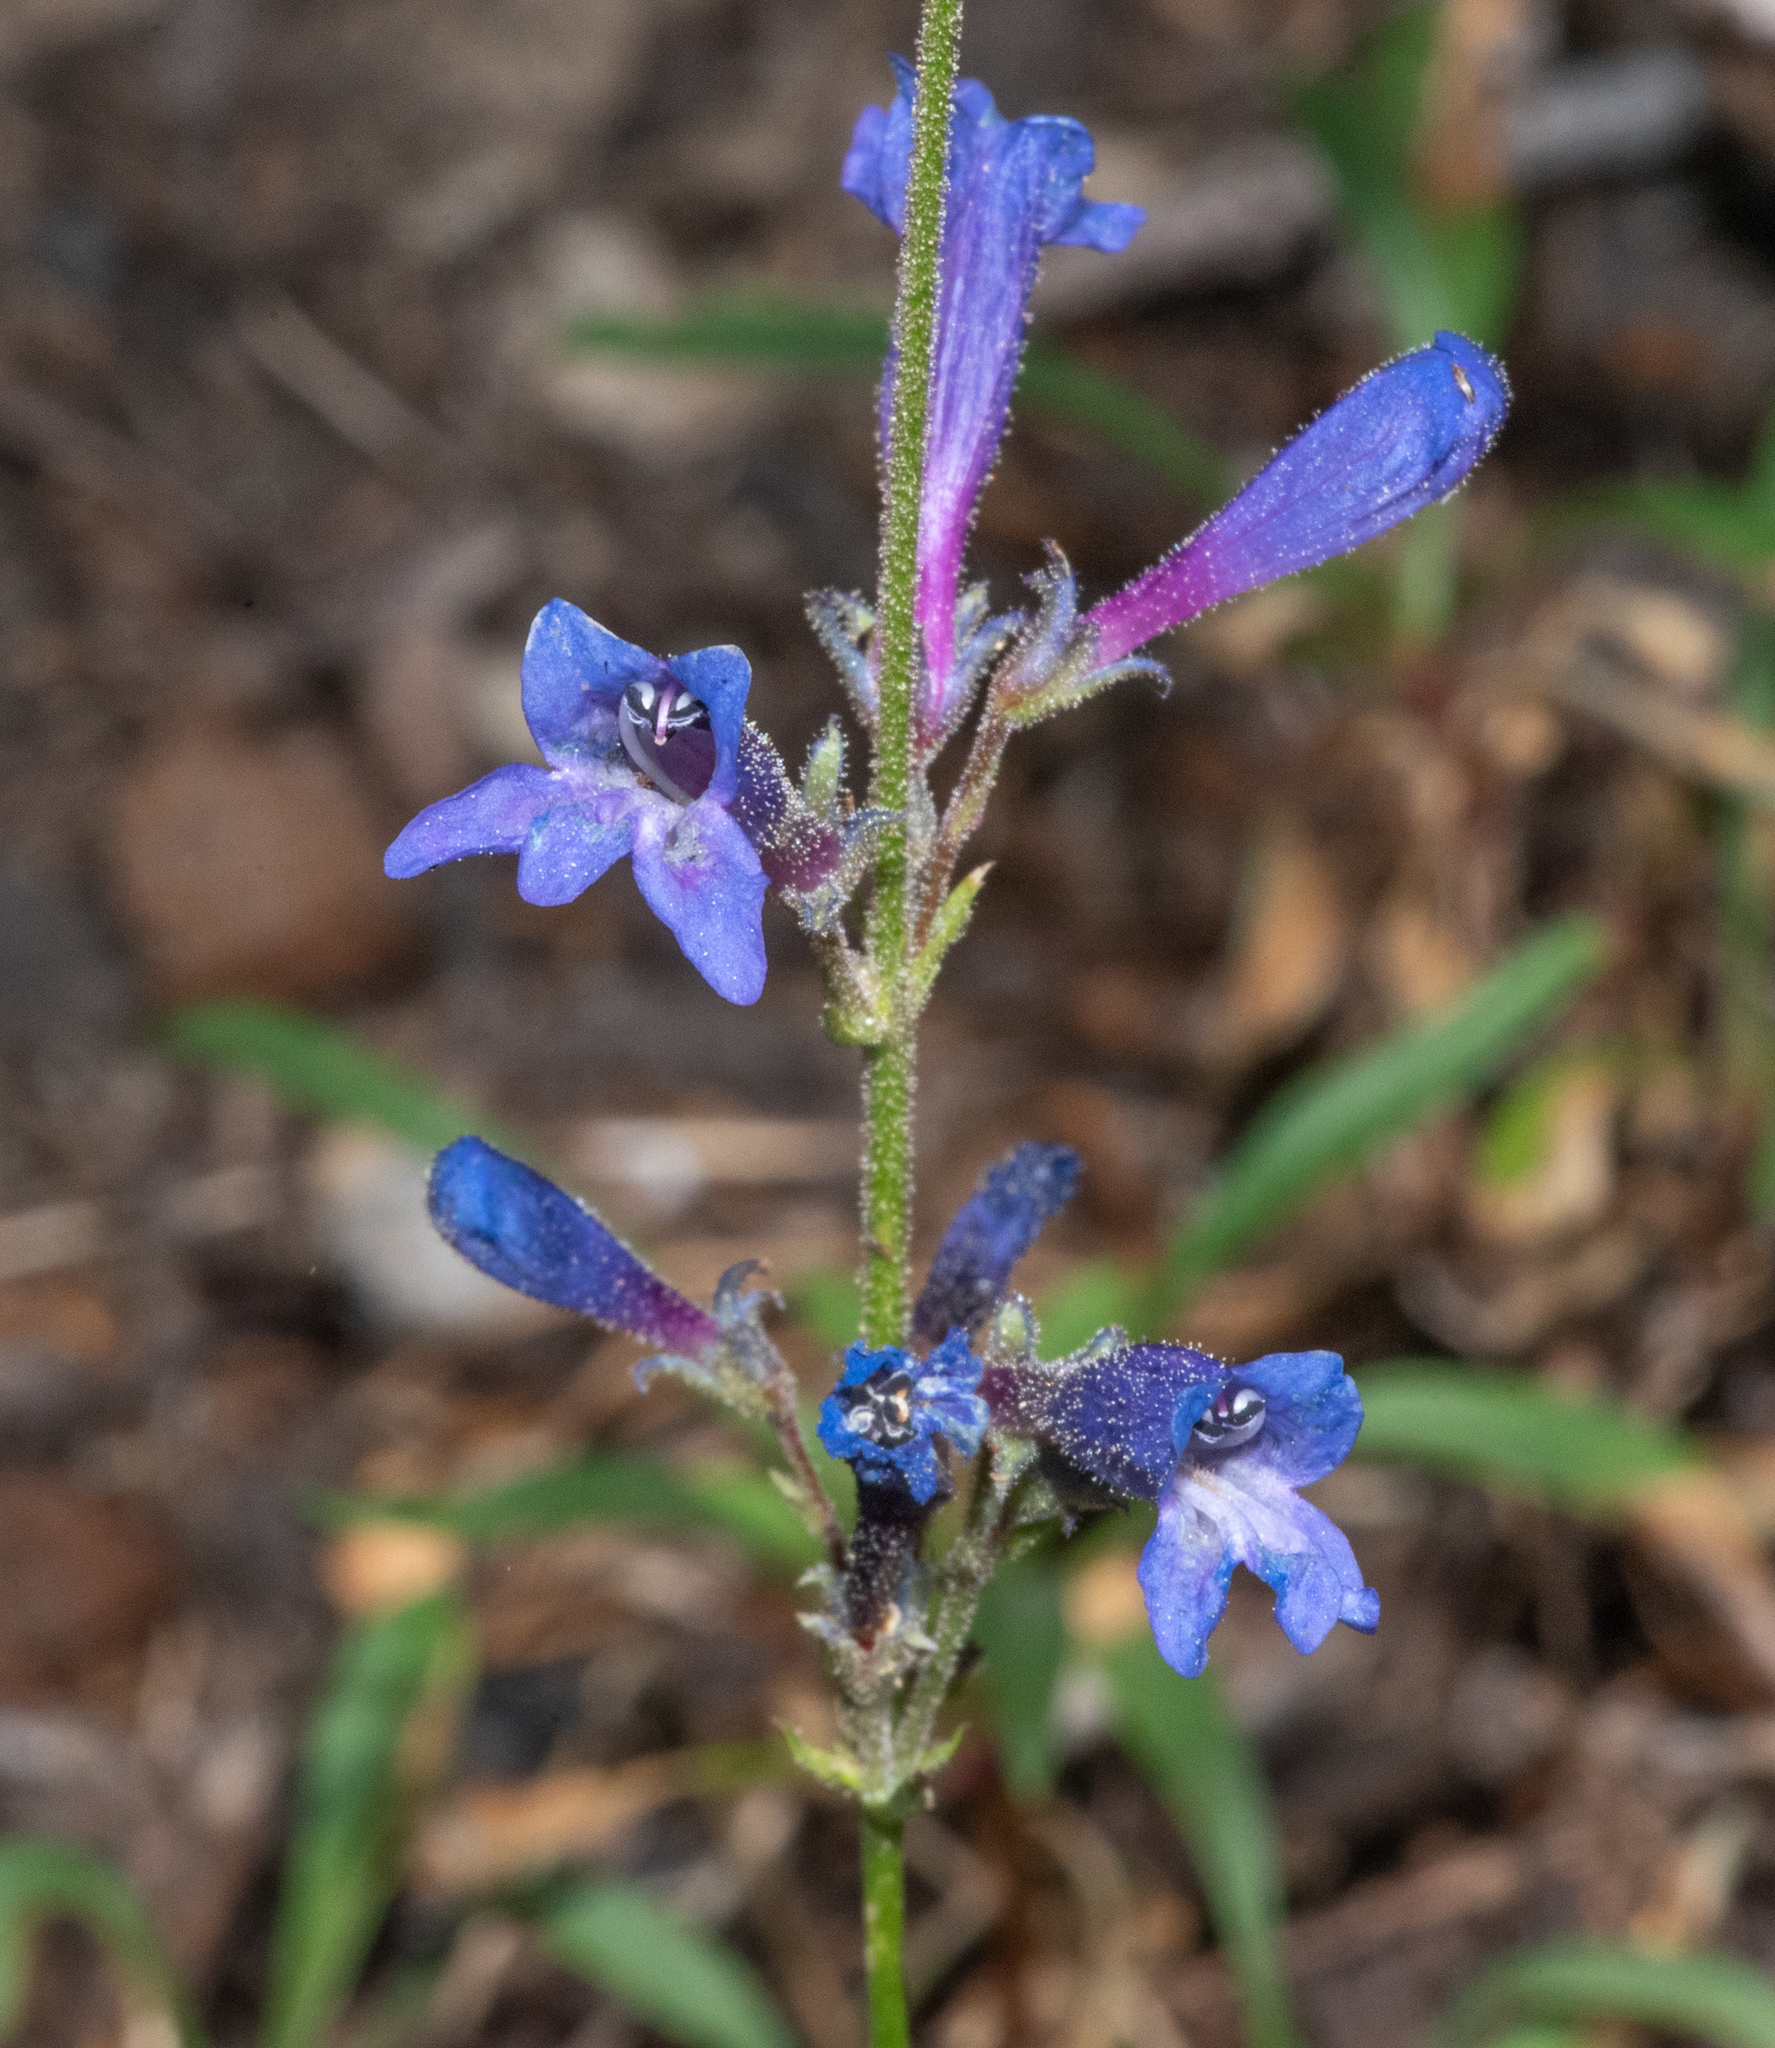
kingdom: Plantae
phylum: Tracheophyta
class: Magnoliopsida
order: Lamiales
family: Plantaginaceae
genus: Penstemon
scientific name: Penstemon rydbergii
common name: Rydberg's beardtongue
